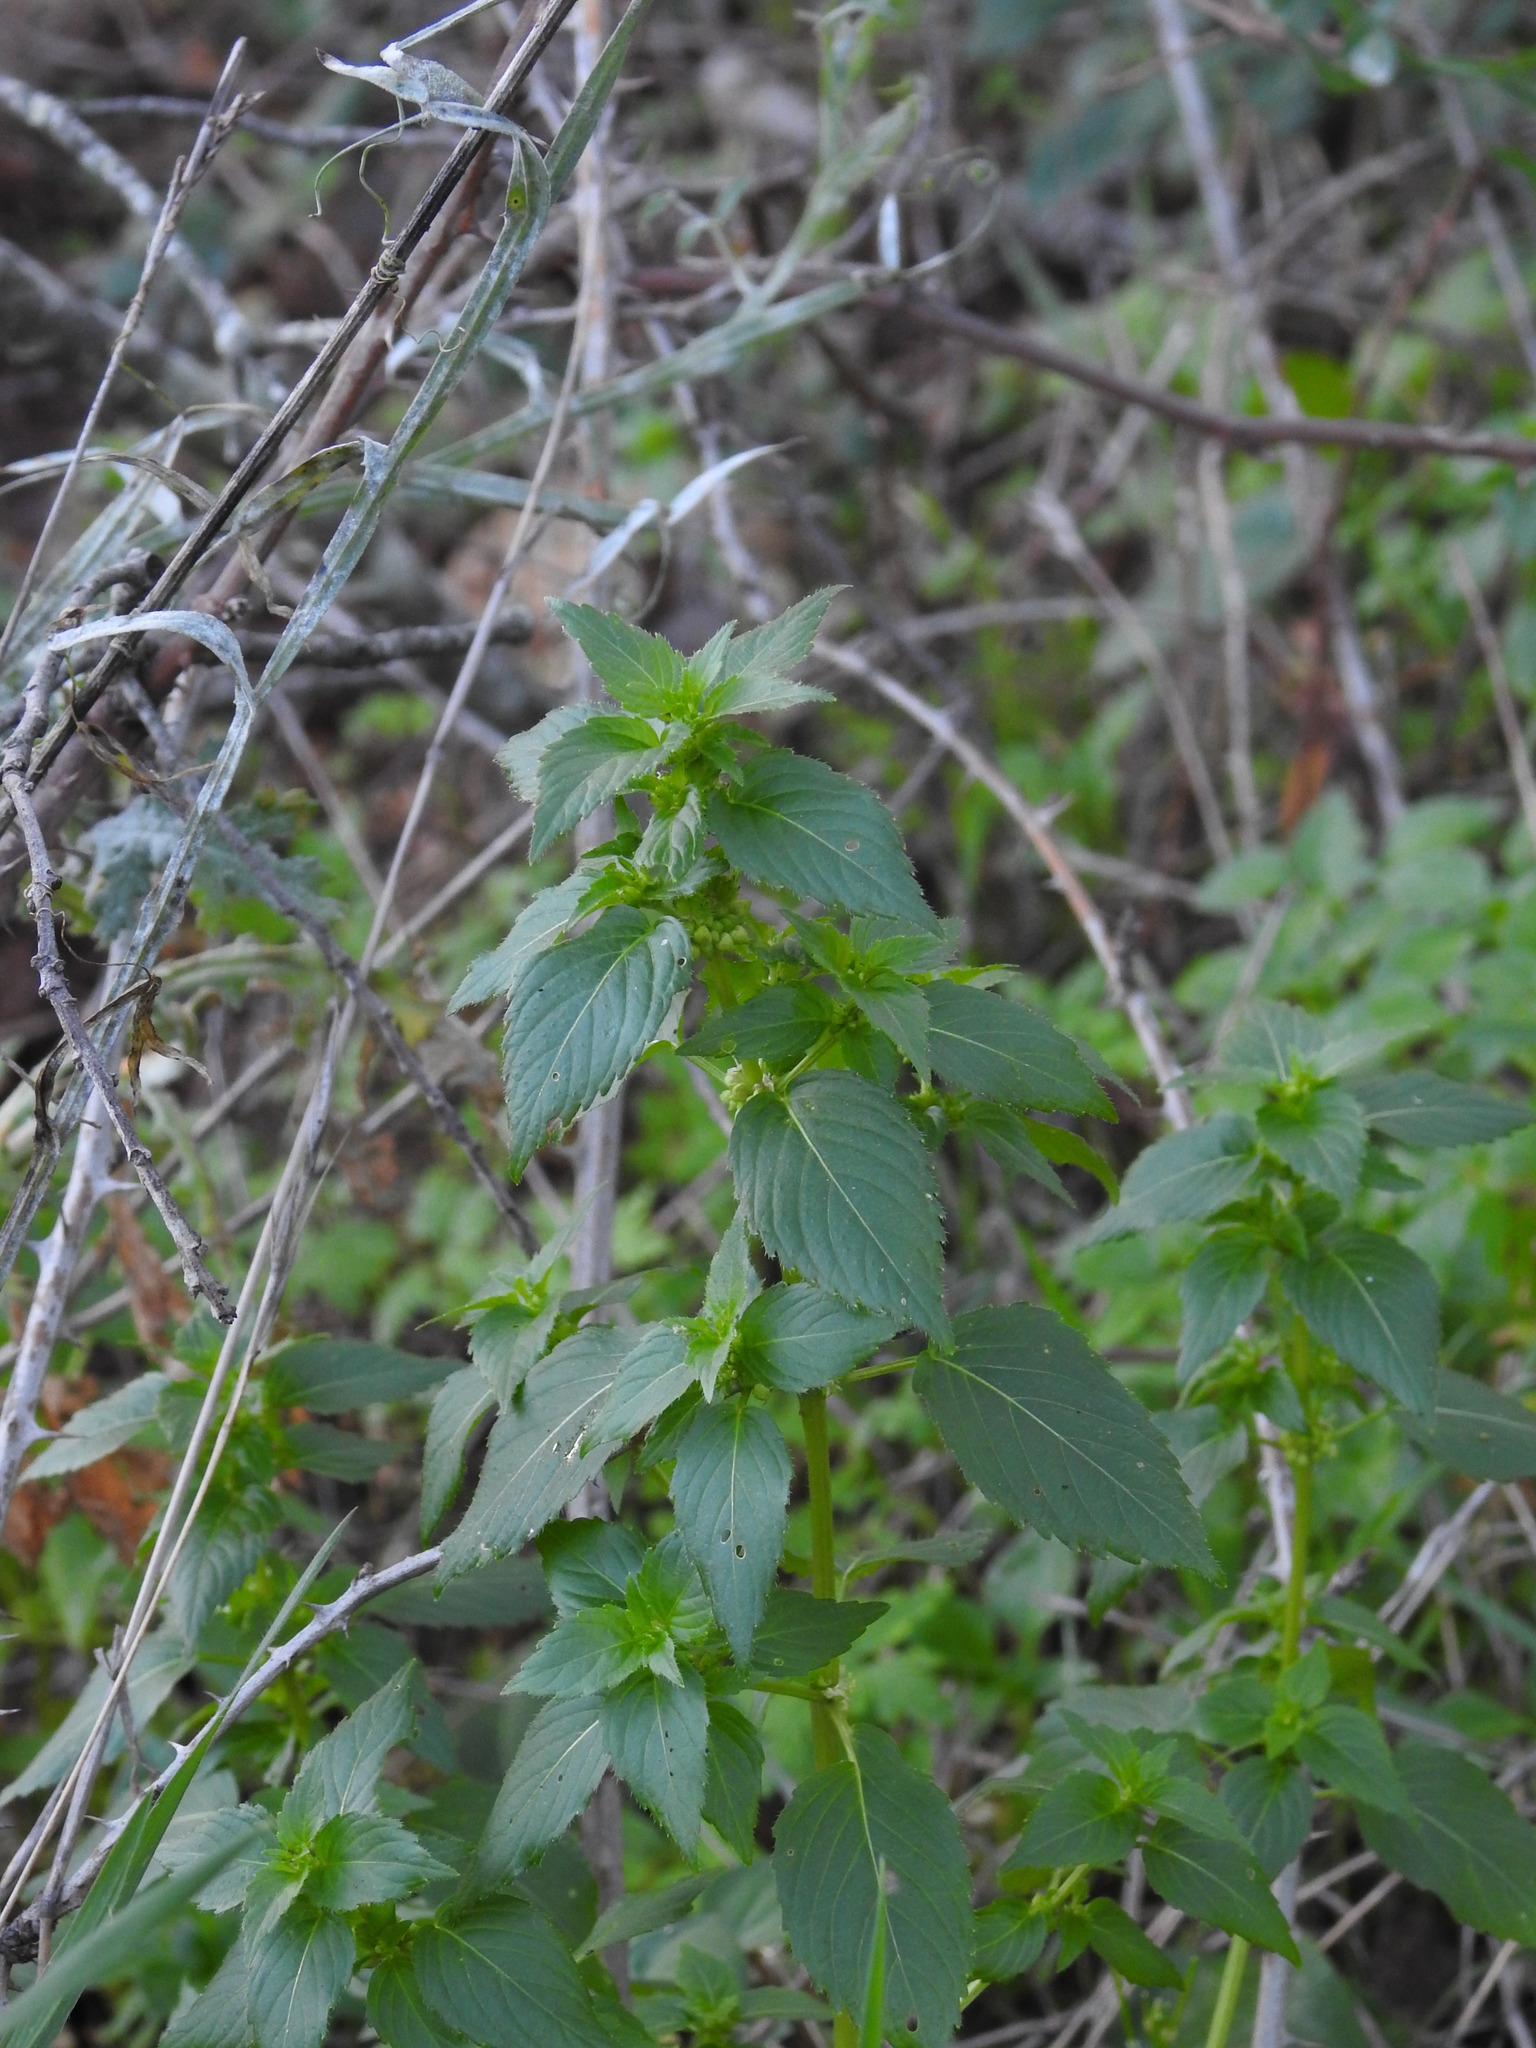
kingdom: Plantae
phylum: Tracheophyta
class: Magnoliopsida
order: Malpighiales
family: Euphorbiaceae
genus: Mercurialis
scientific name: Mercurialis annua
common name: Annual mercury
